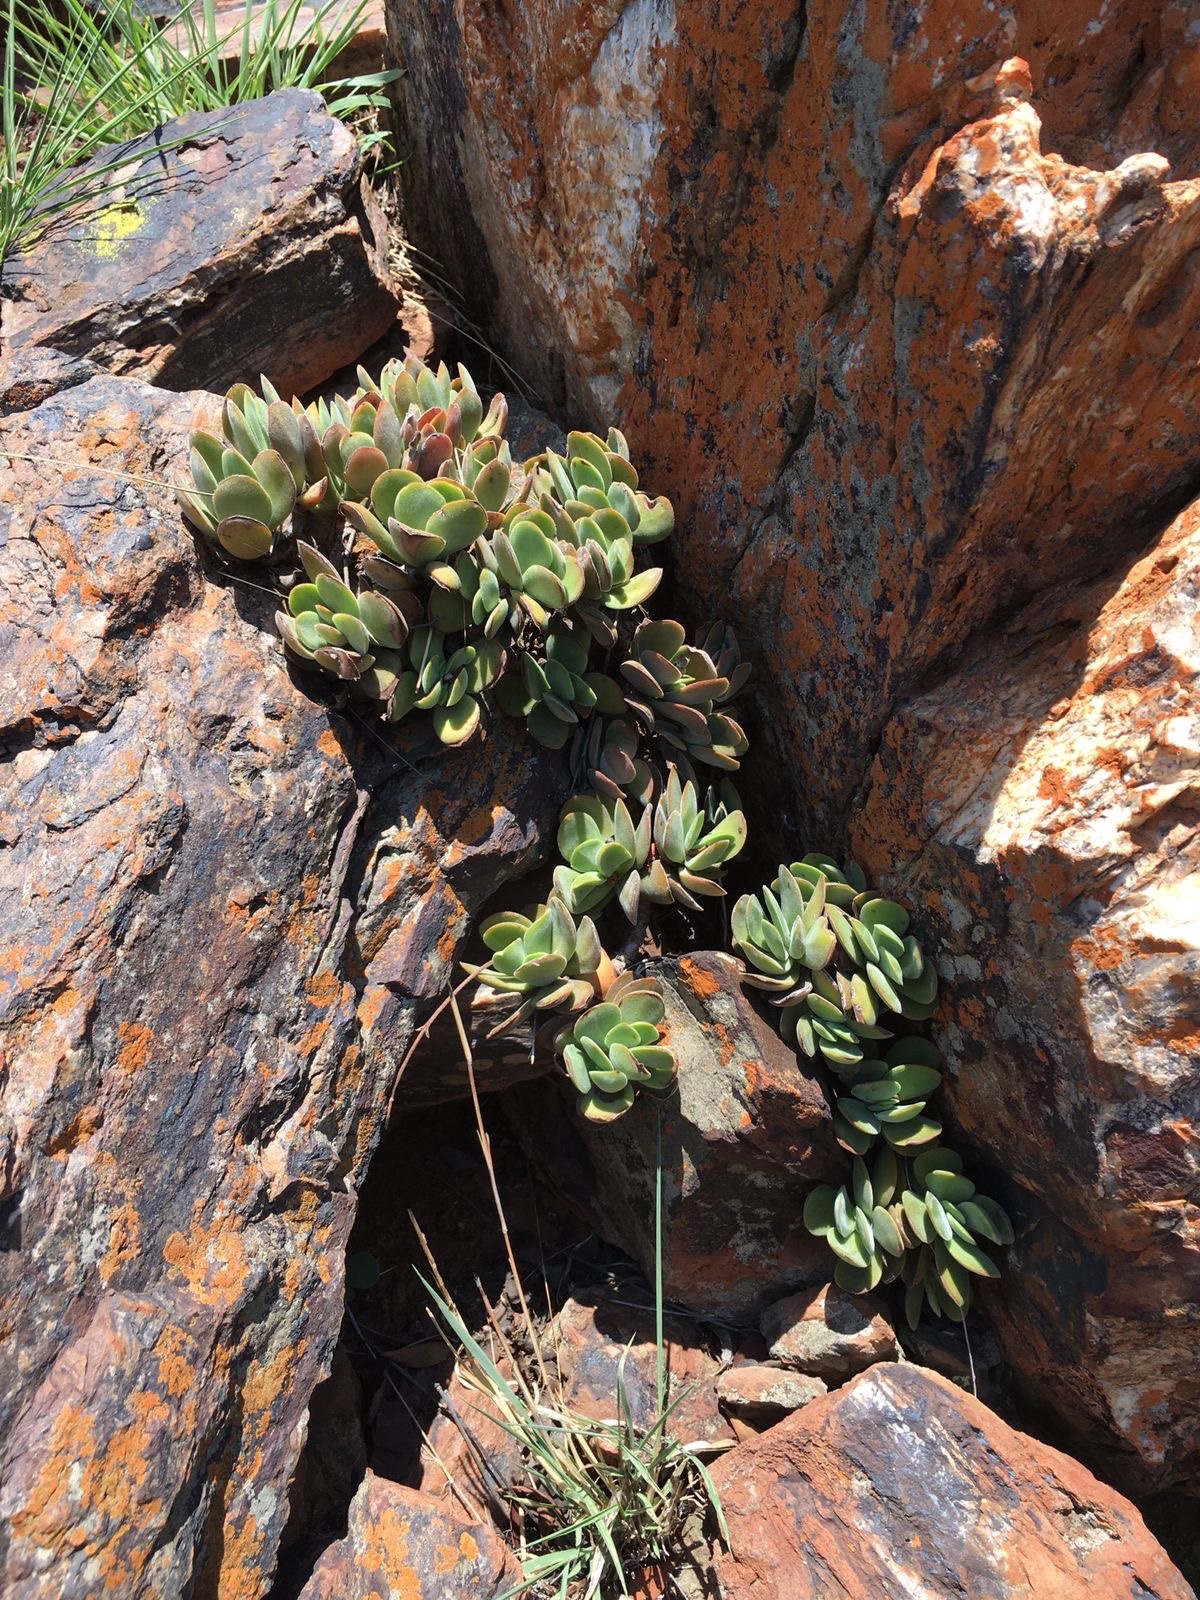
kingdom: Plantae
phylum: Tracheophyta
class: Magnoliopsida
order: Saxifragales
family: Crassulaceae
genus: Crassula
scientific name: Crassula globularioides
